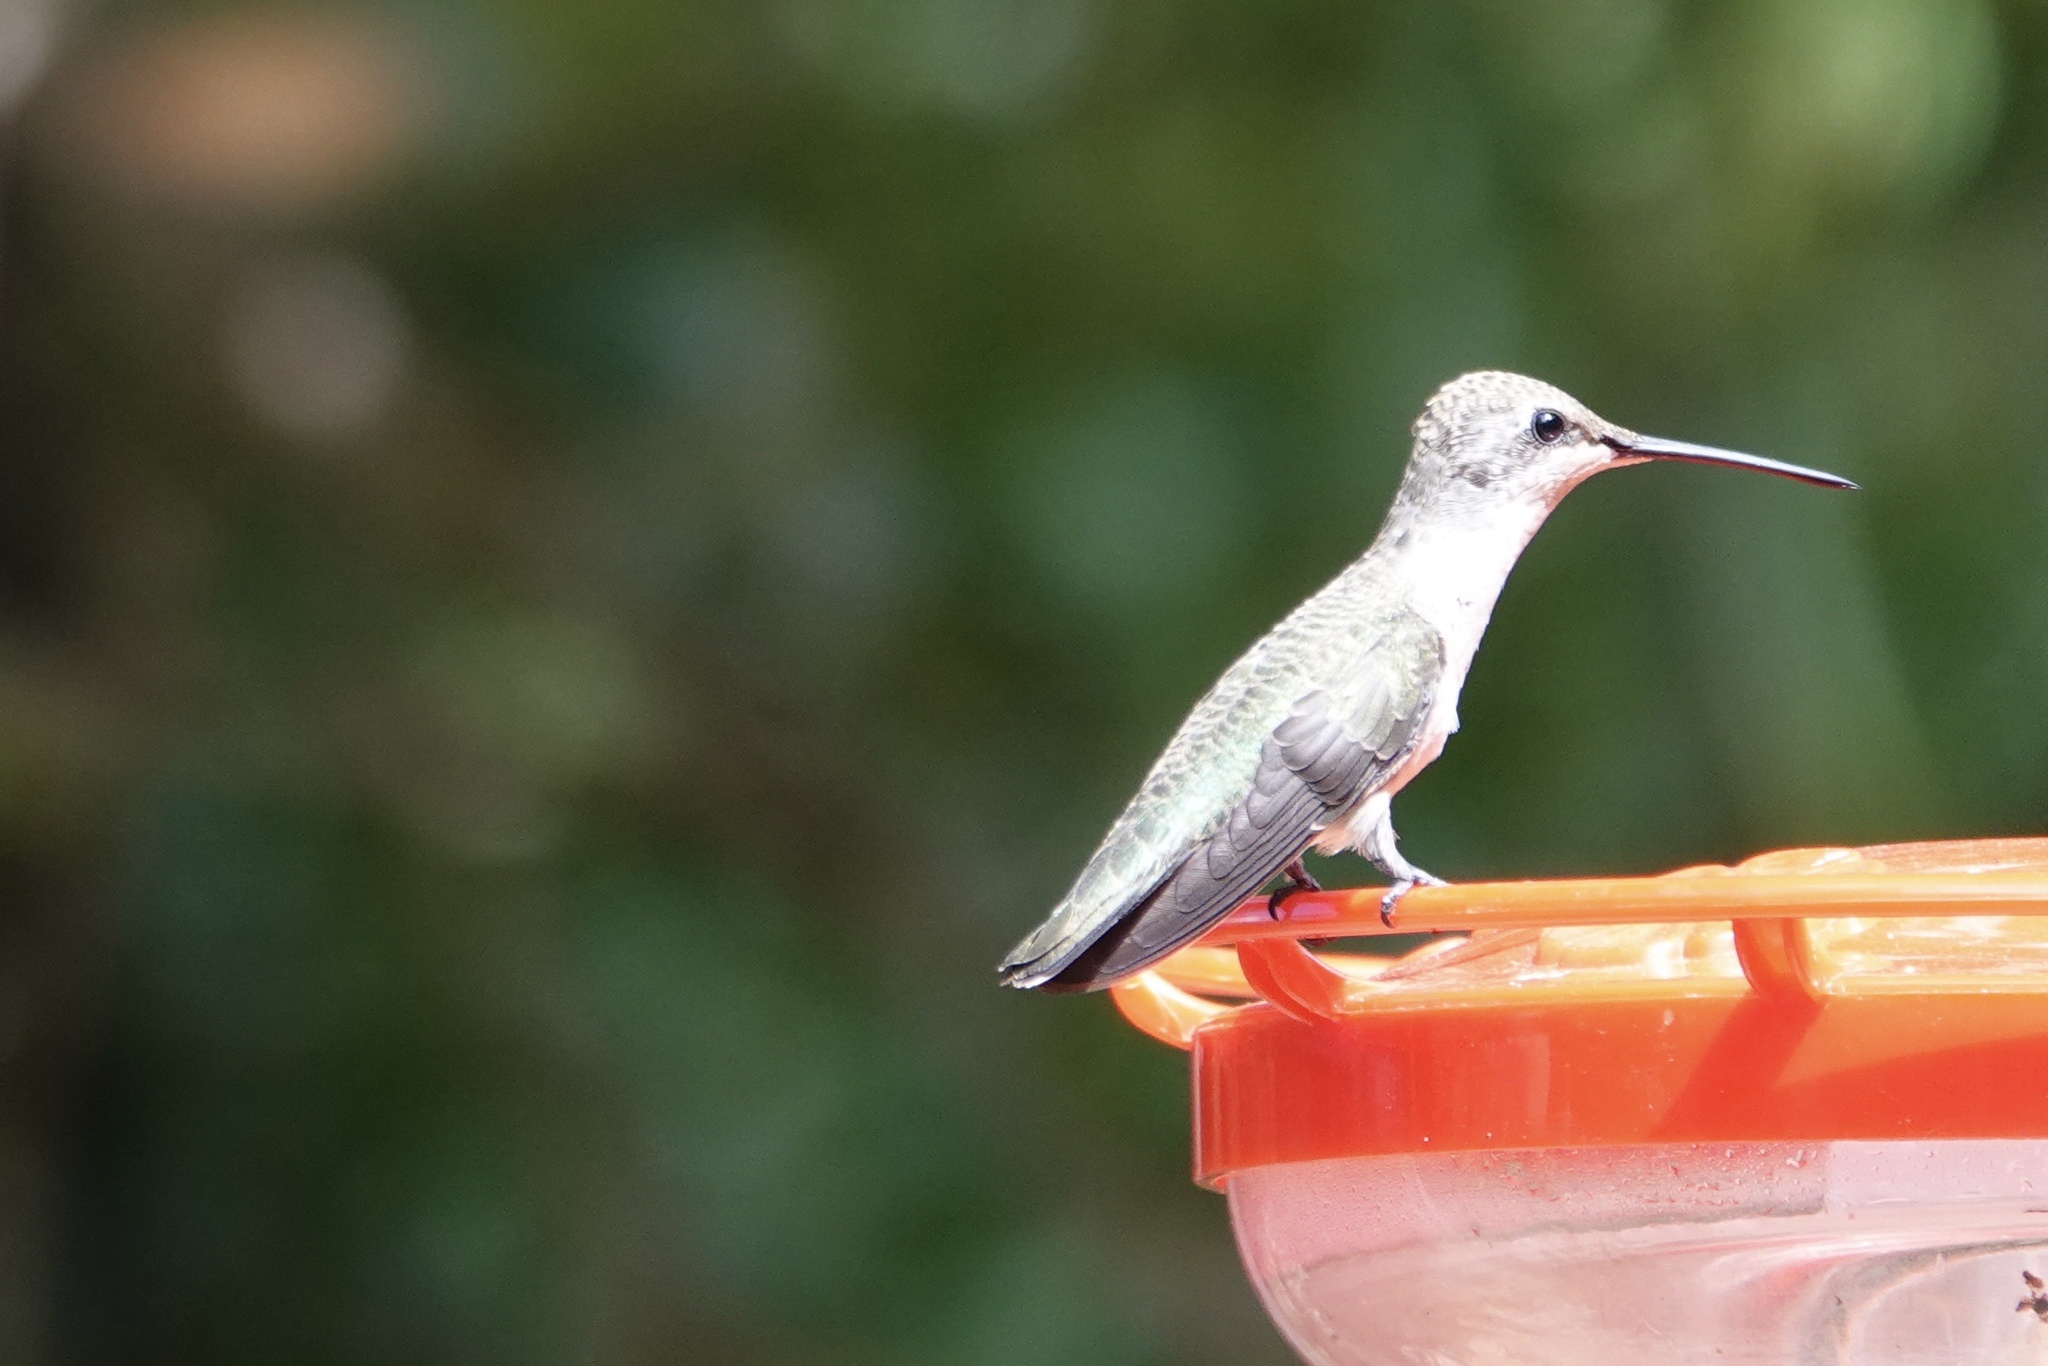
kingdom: Animalia
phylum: Chordata
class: Aves
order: Apodiformes
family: Trochilidae
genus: Archilochus
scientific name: Archilochus alexandri
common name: Black-chinned hummingbird
